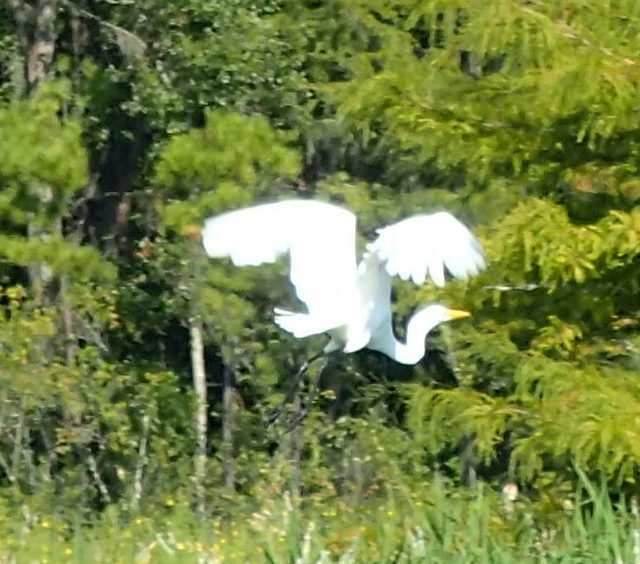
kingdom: Animalia
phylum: Chordata
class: Aves
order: Pelecaniformes
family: Ardeidae
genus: Ardea
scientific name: Ardea alba
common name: Great egret
